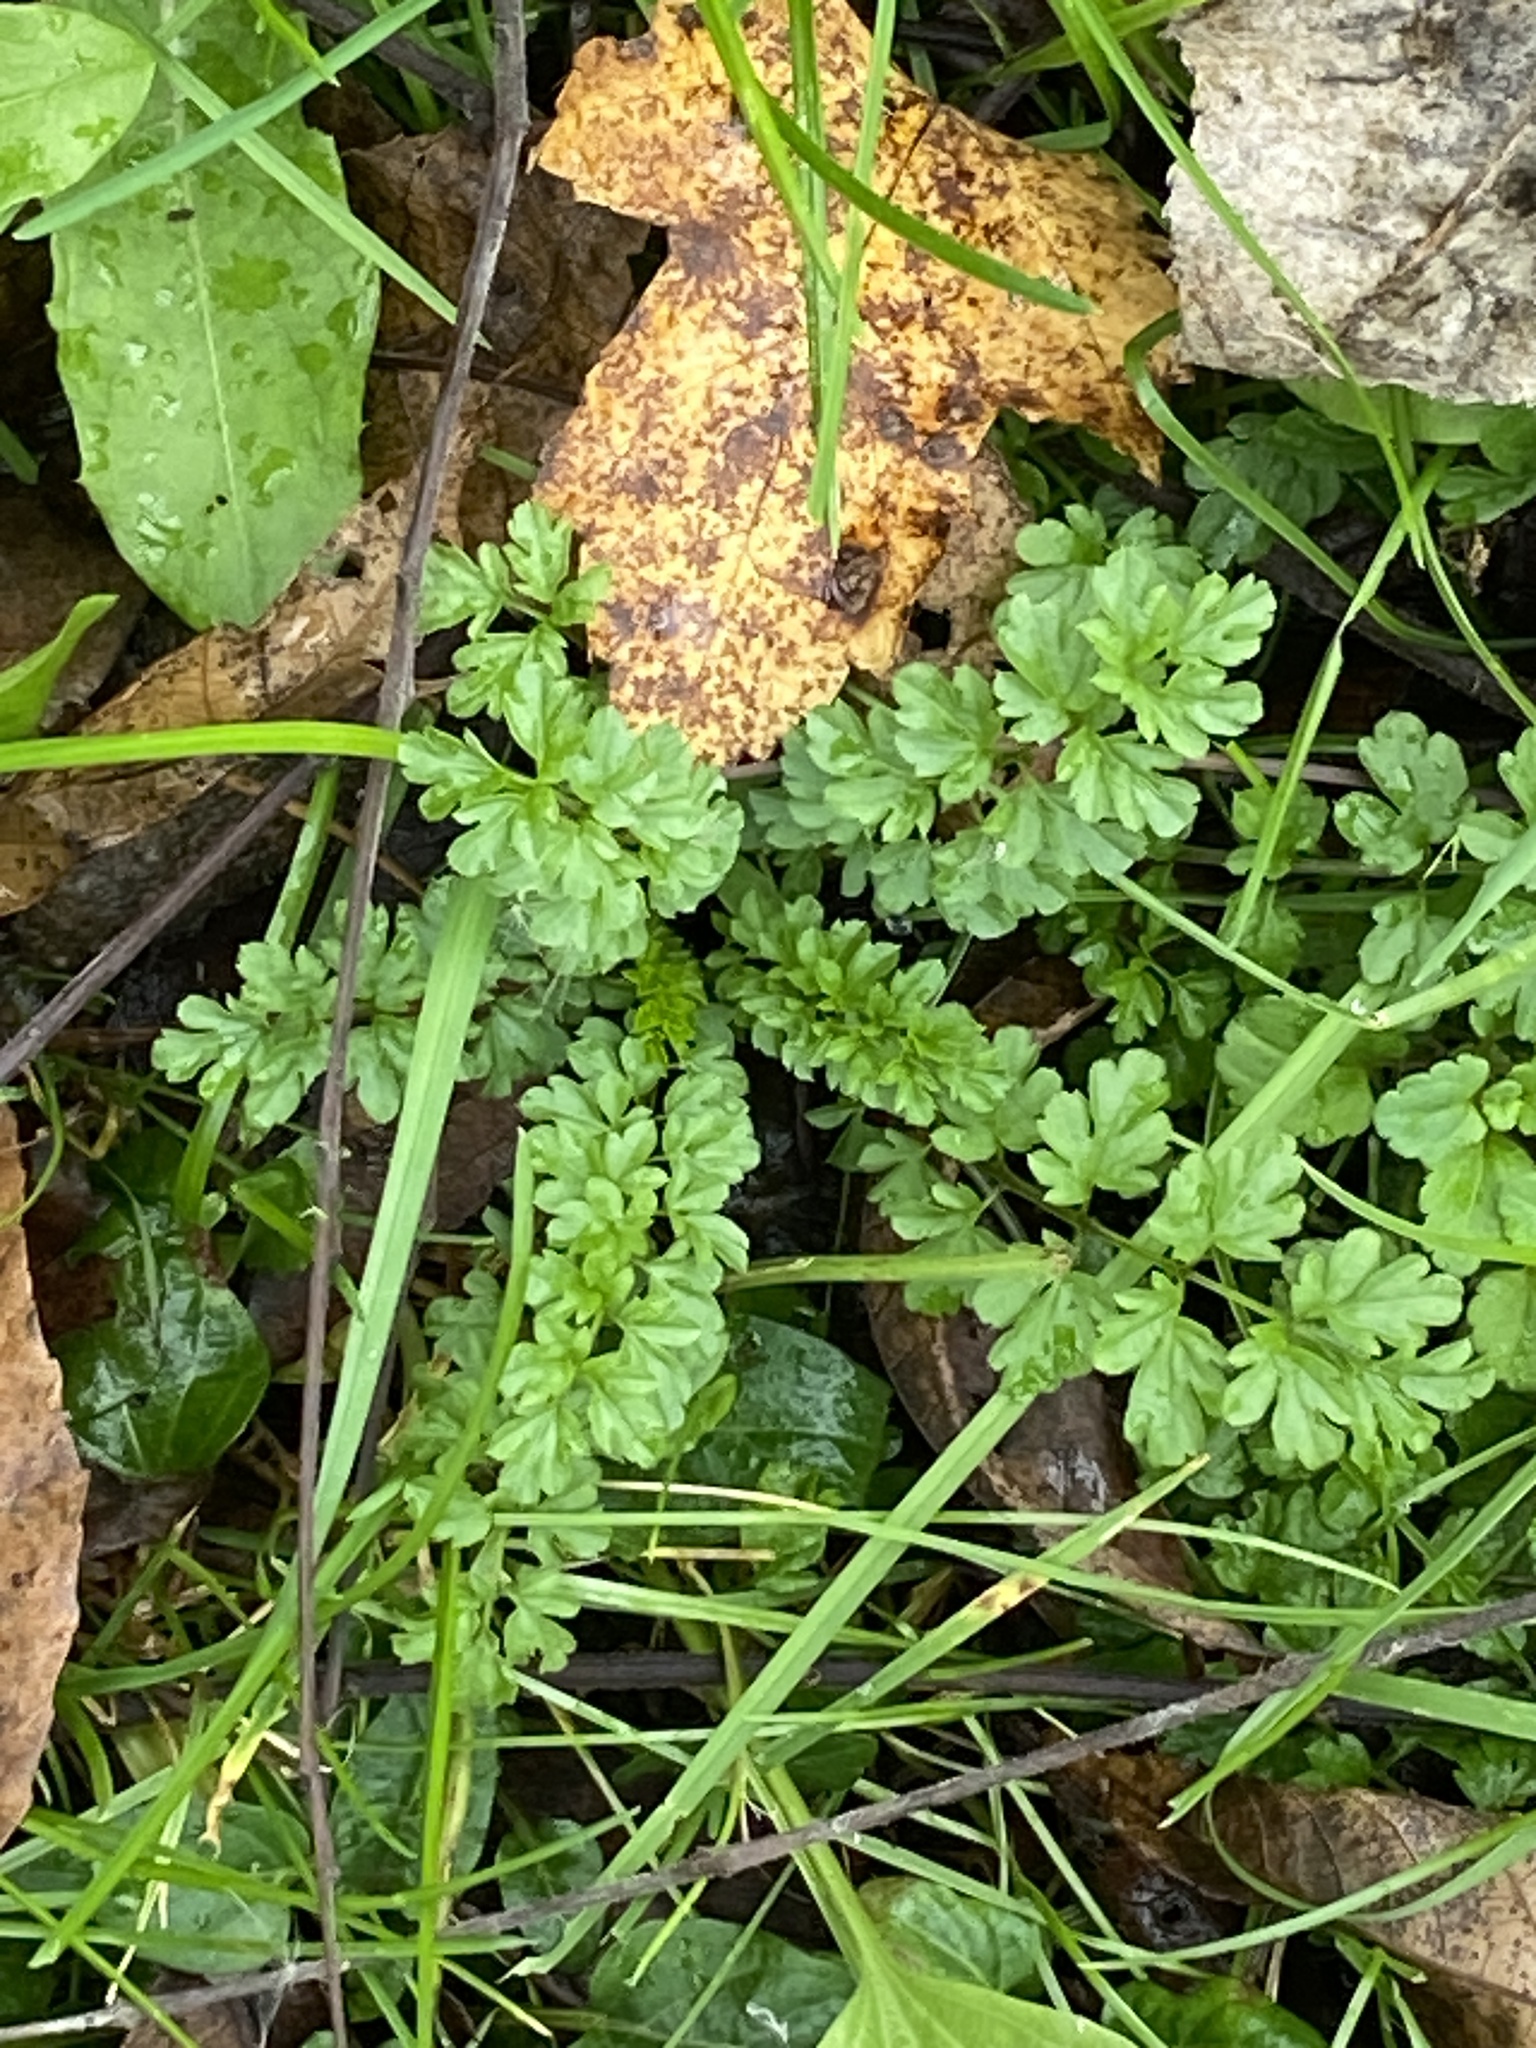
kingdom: Plantae
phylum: Tracheophyta
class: Magnoliopsida
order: Brassicales
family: Brassicaceae
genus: Cardamine
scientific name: Cardamine impatiens
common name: Narrow-leaved bitter-cress
